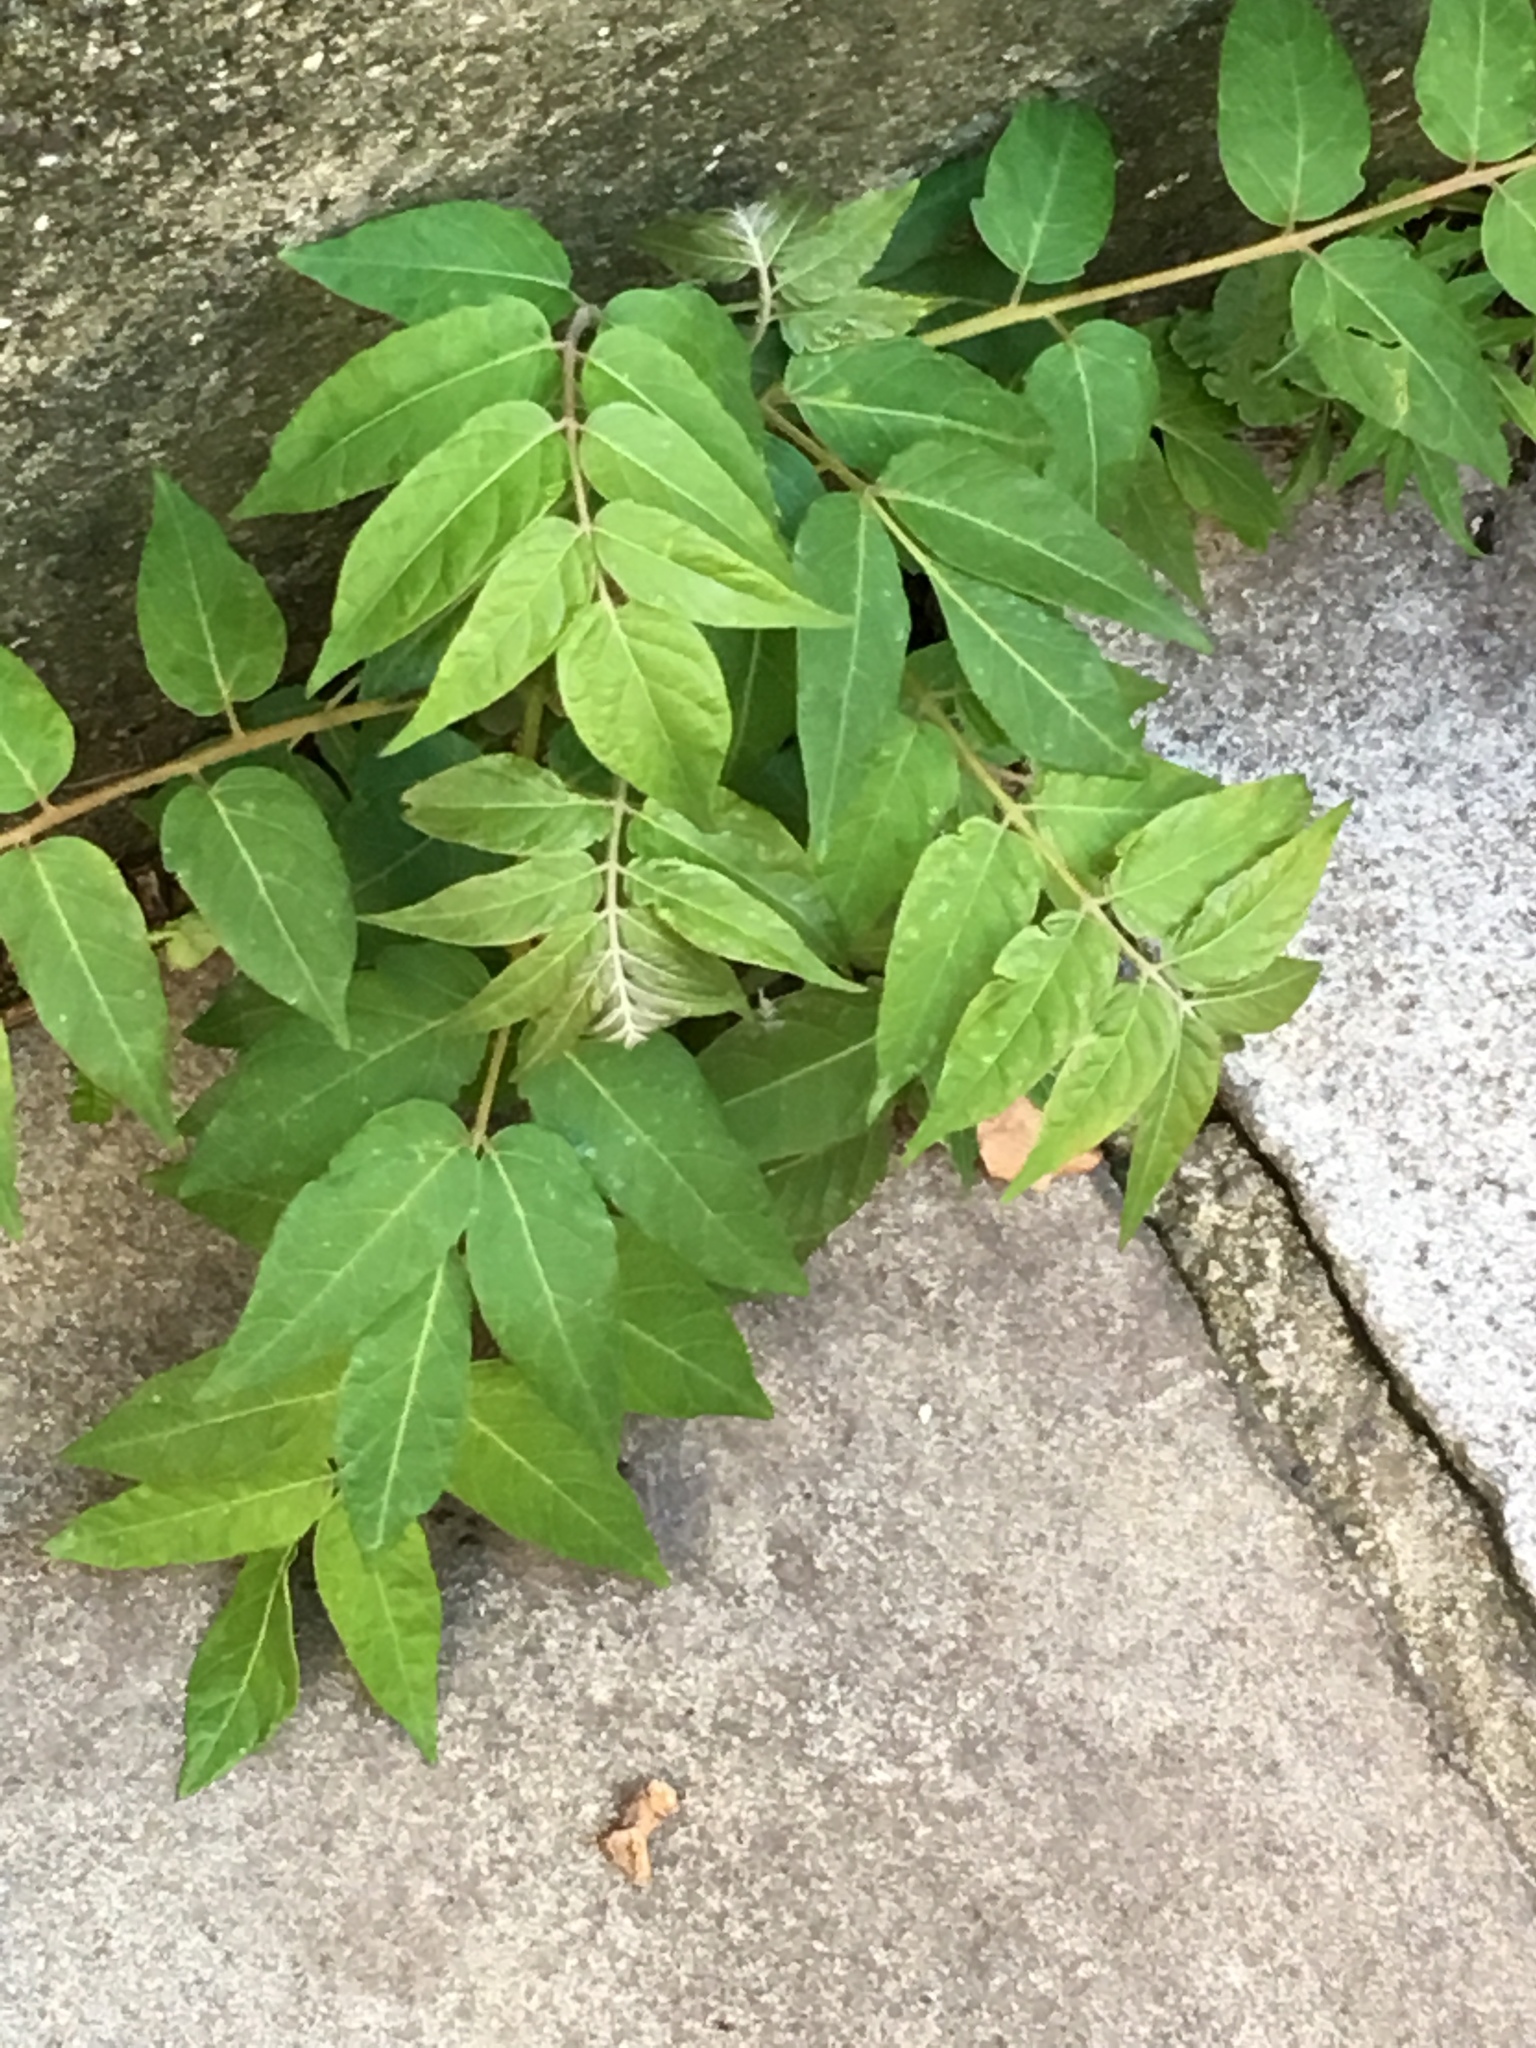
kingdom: Plantae
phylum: Tracheophyta
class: Magnoliopsida
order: Sapindales
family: Simaroubaceae
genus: Ailanthus
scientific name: Ailanthus altissima
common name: Tree-of-heaven
